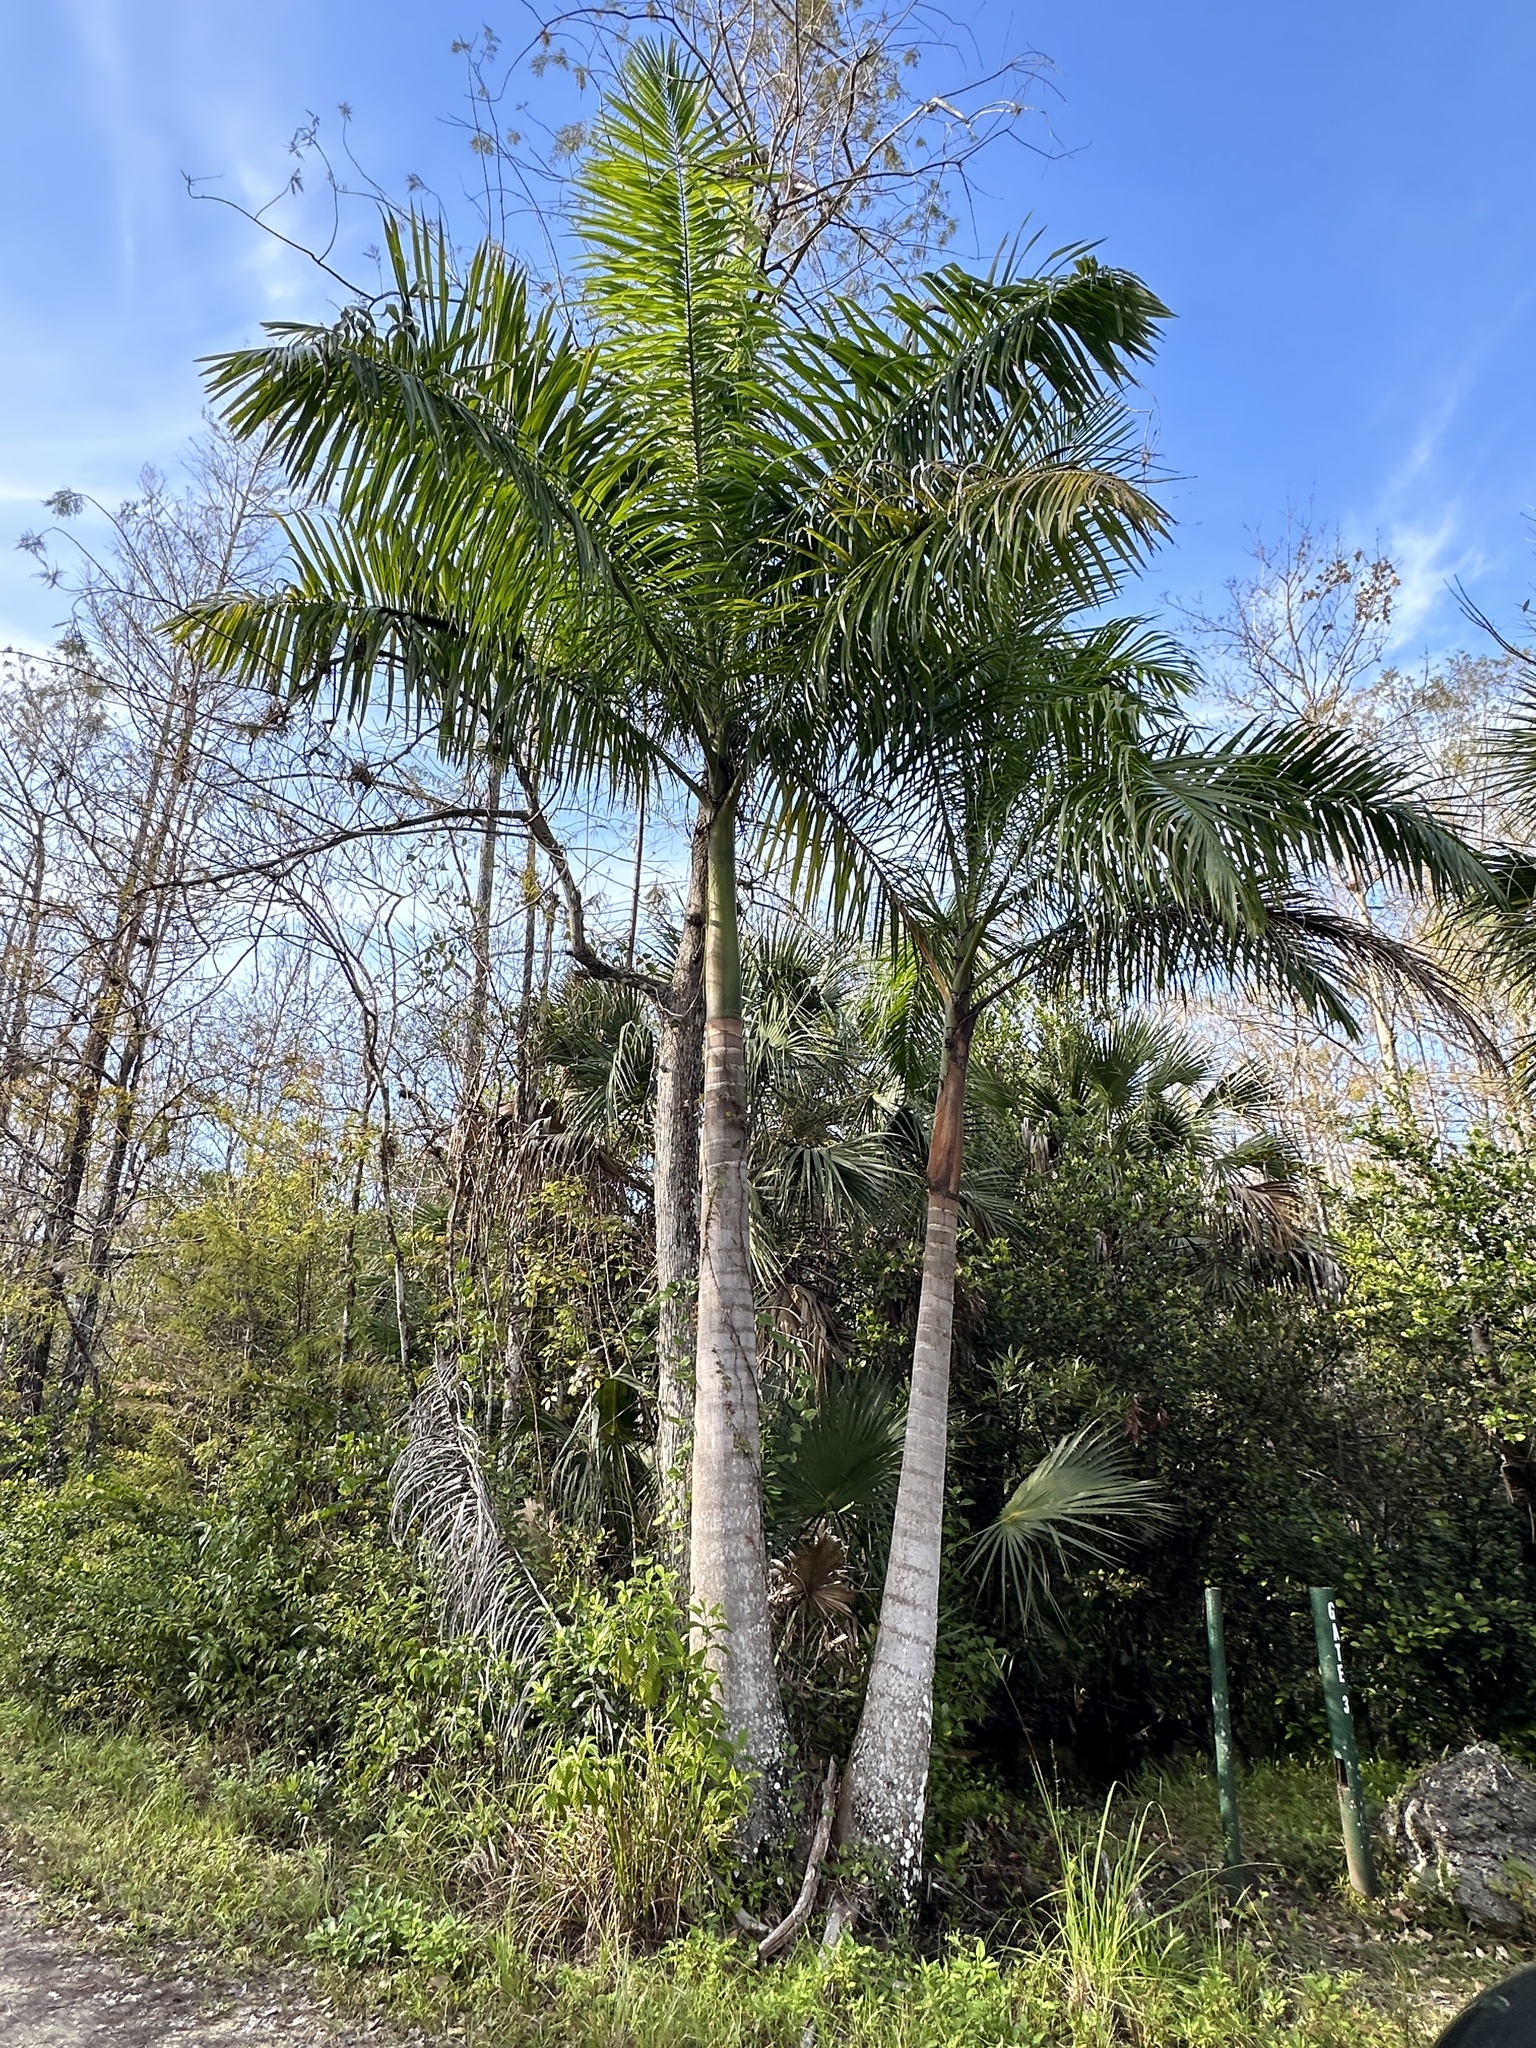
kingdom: Plantae
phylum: Tracheophyta
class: Liliopsida
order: Arecales
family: Arecaceae
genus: Roystonea
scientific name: Roystonea regia
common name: Florida royal palm
